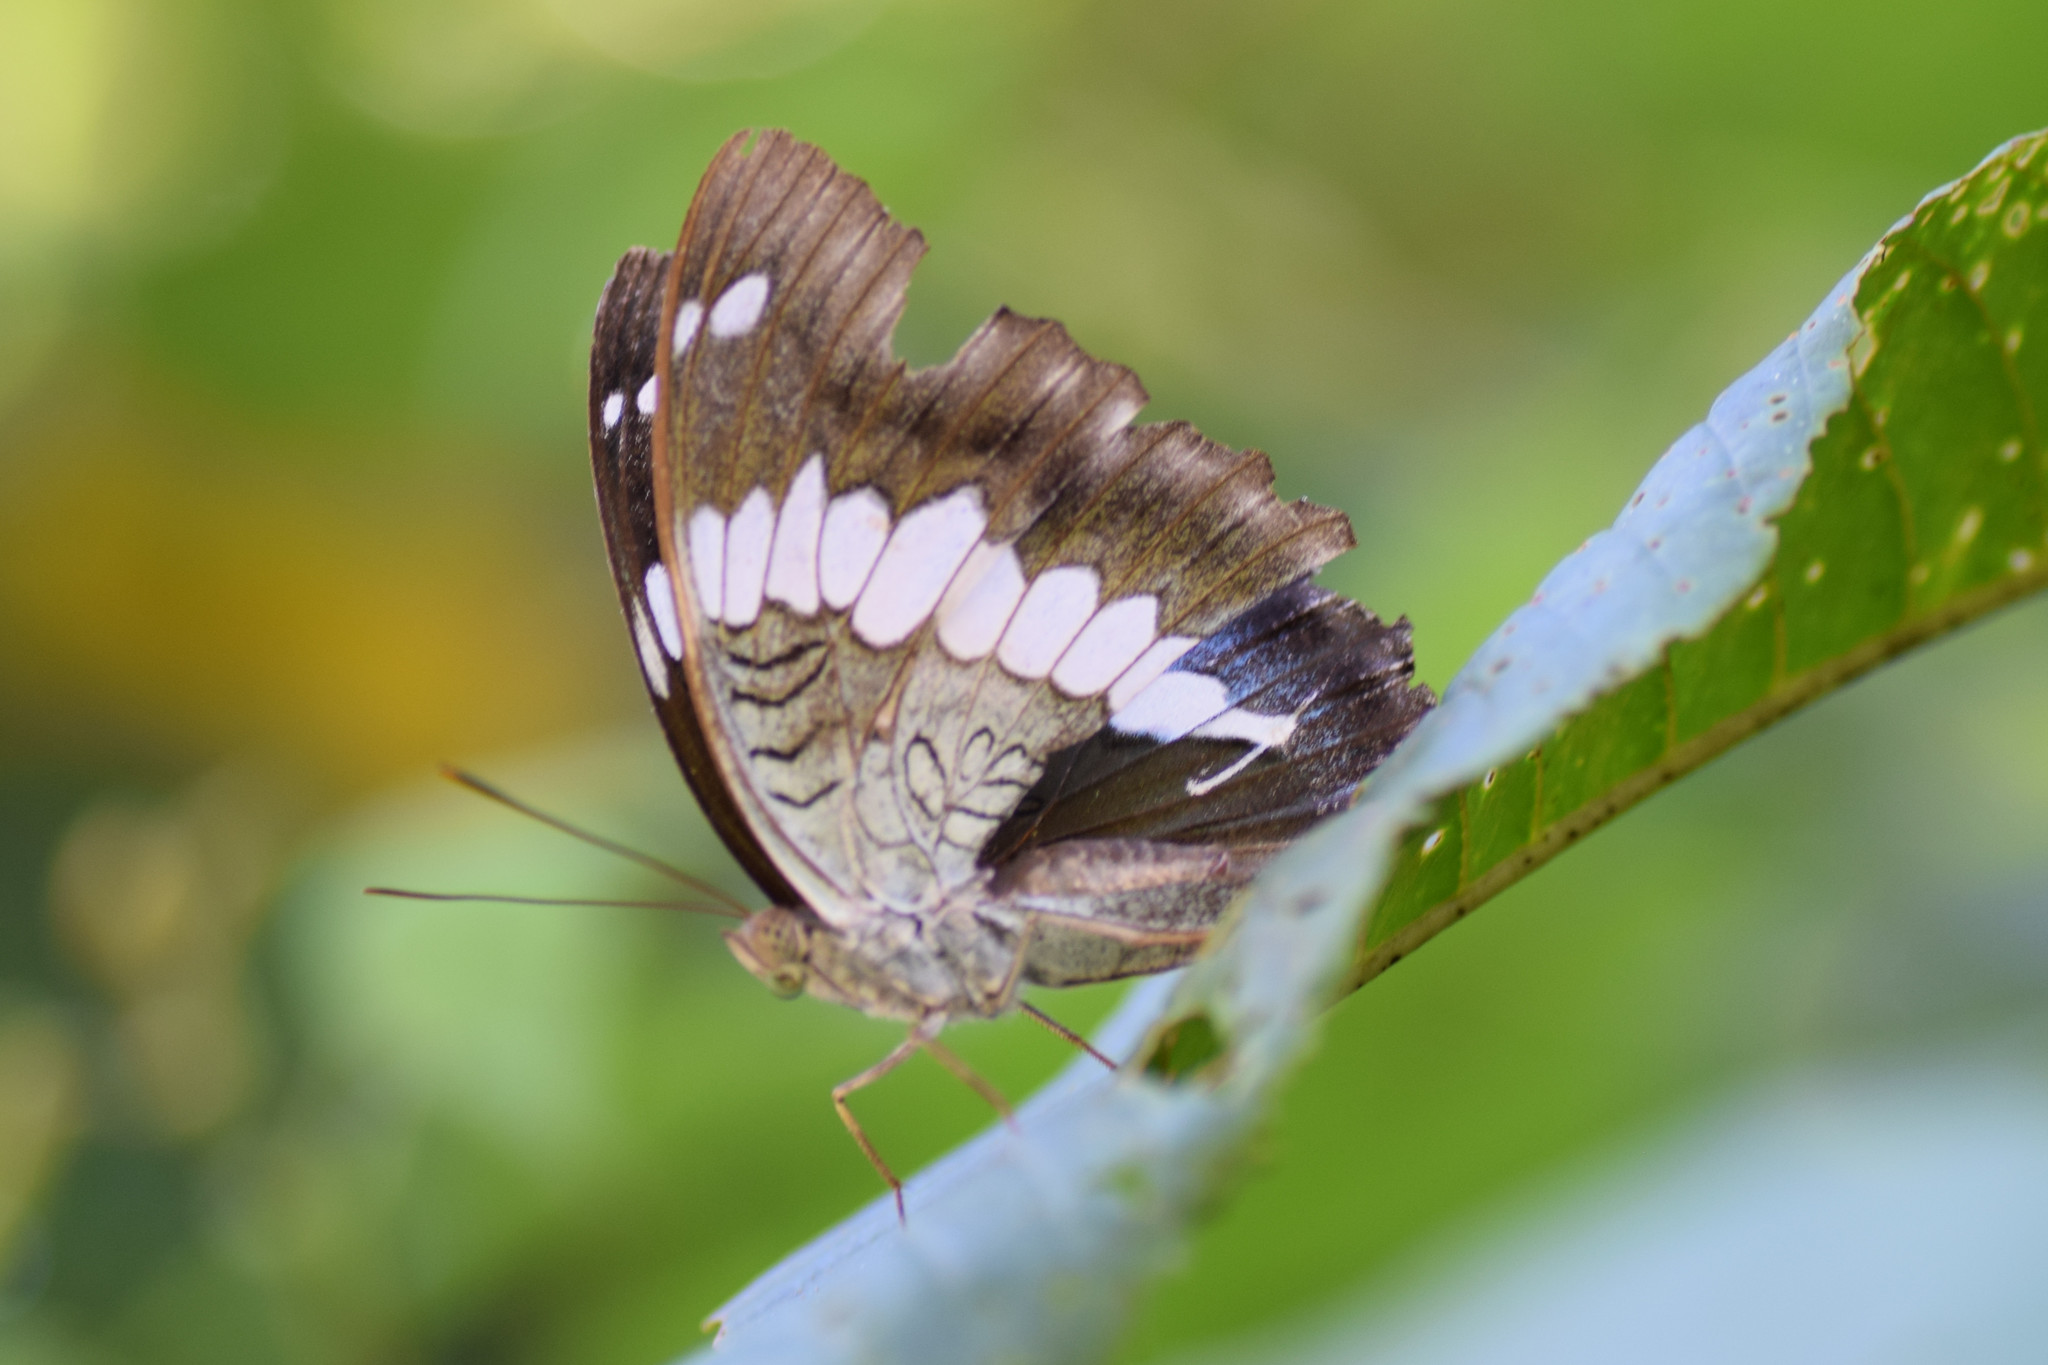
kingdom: Animalia
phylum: Arthropoda
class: Insecta
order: Lepidoptera
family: Nymphalidae
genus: Euthalia
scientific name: Euthalia durga
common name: Blue duke
